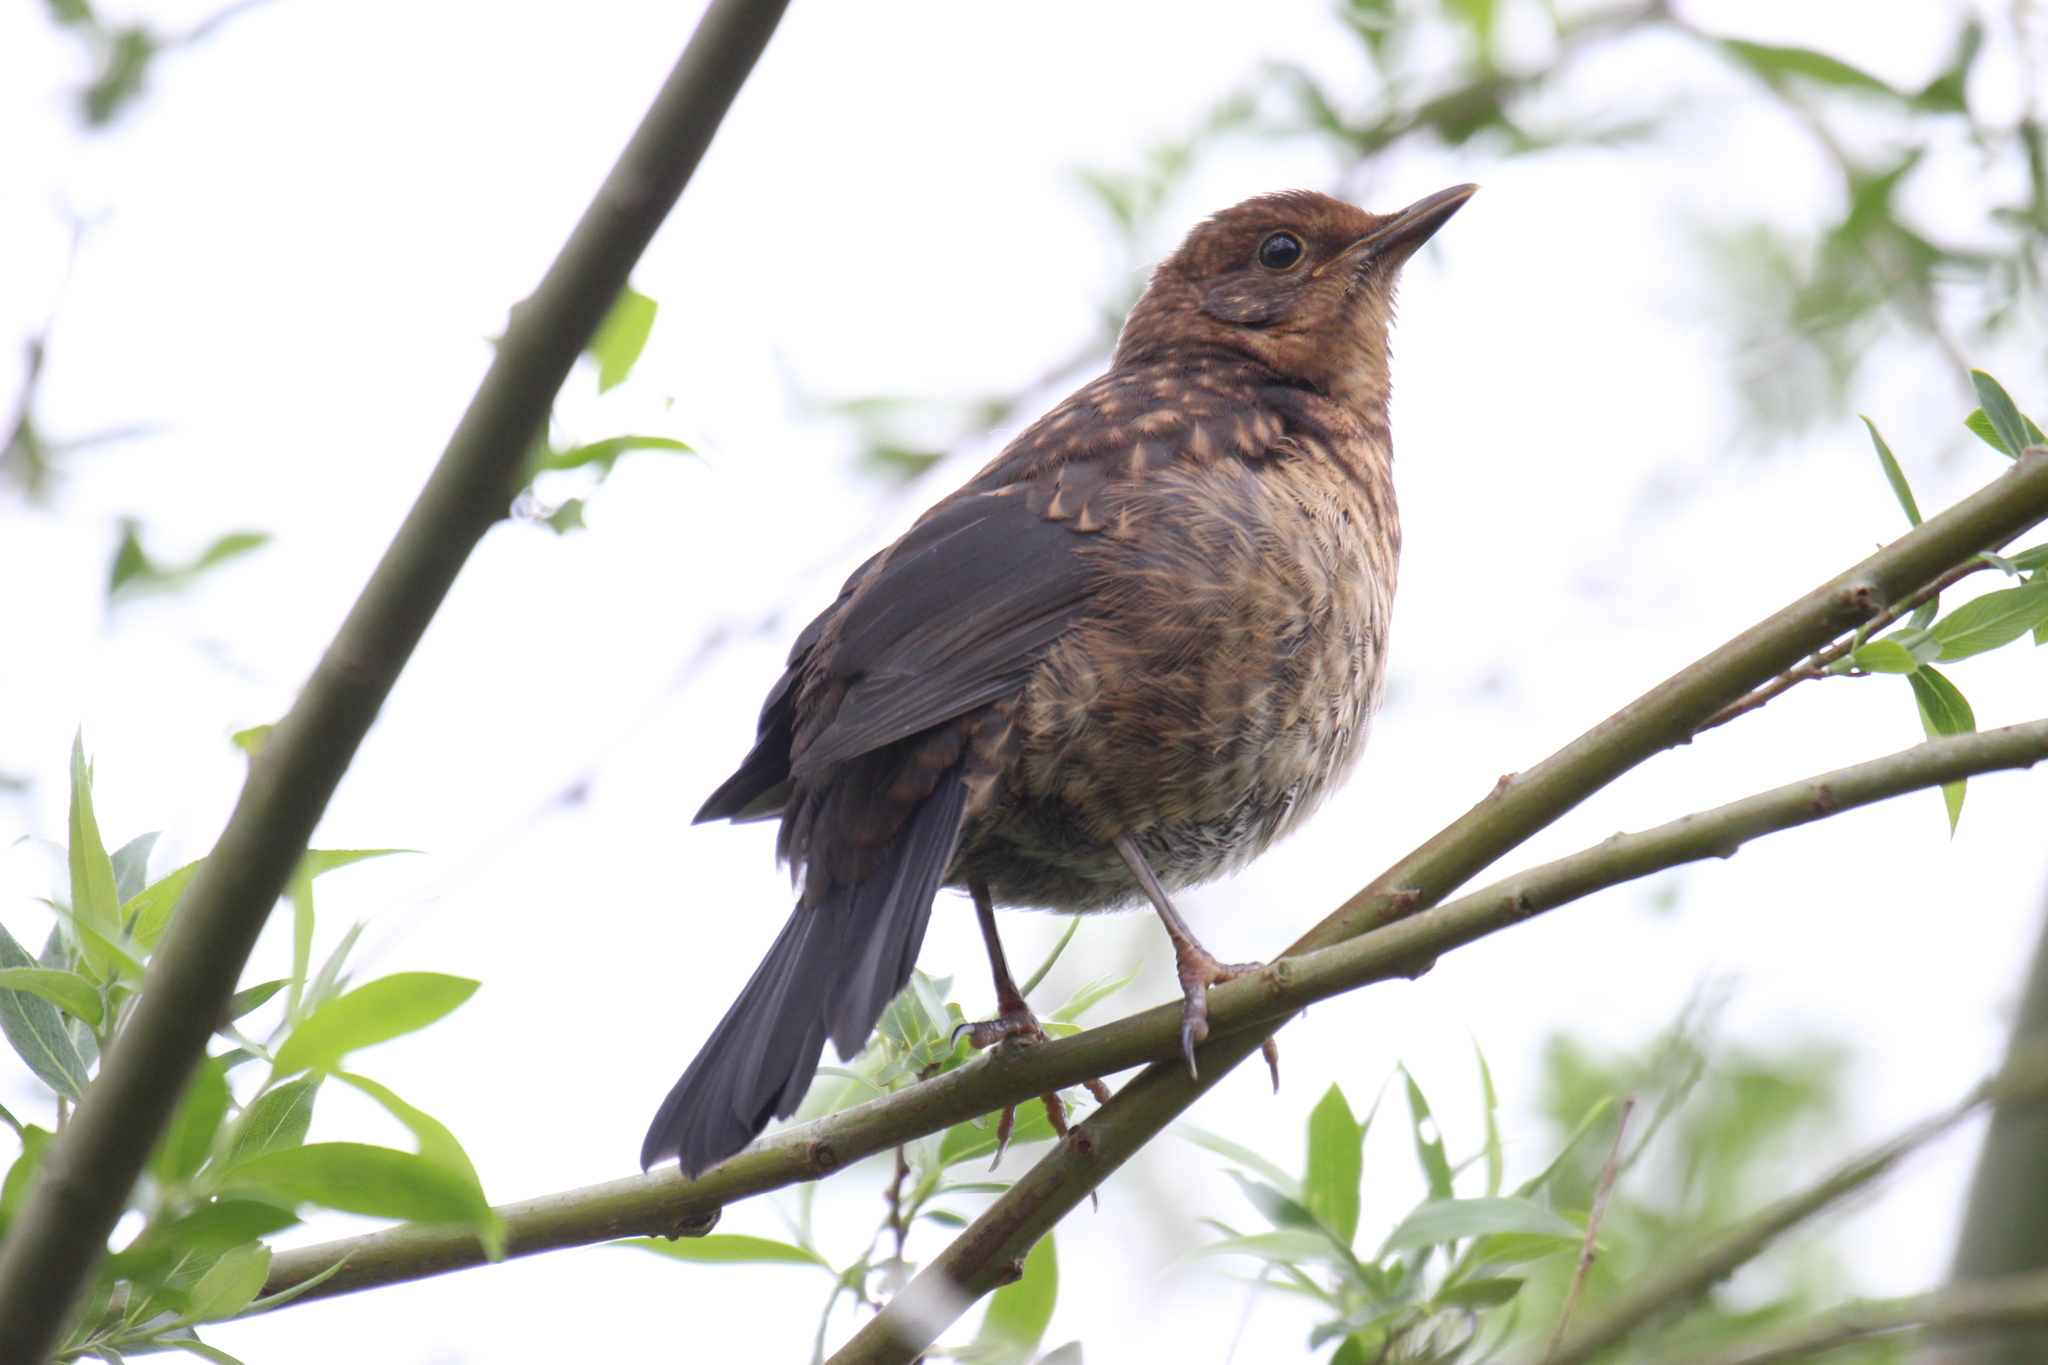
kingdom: Animalia
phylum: Chordata
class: Aves
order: Passeriformes
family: Turdidae
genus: Turdus
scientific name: Turdus merula
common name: Common blackbird
